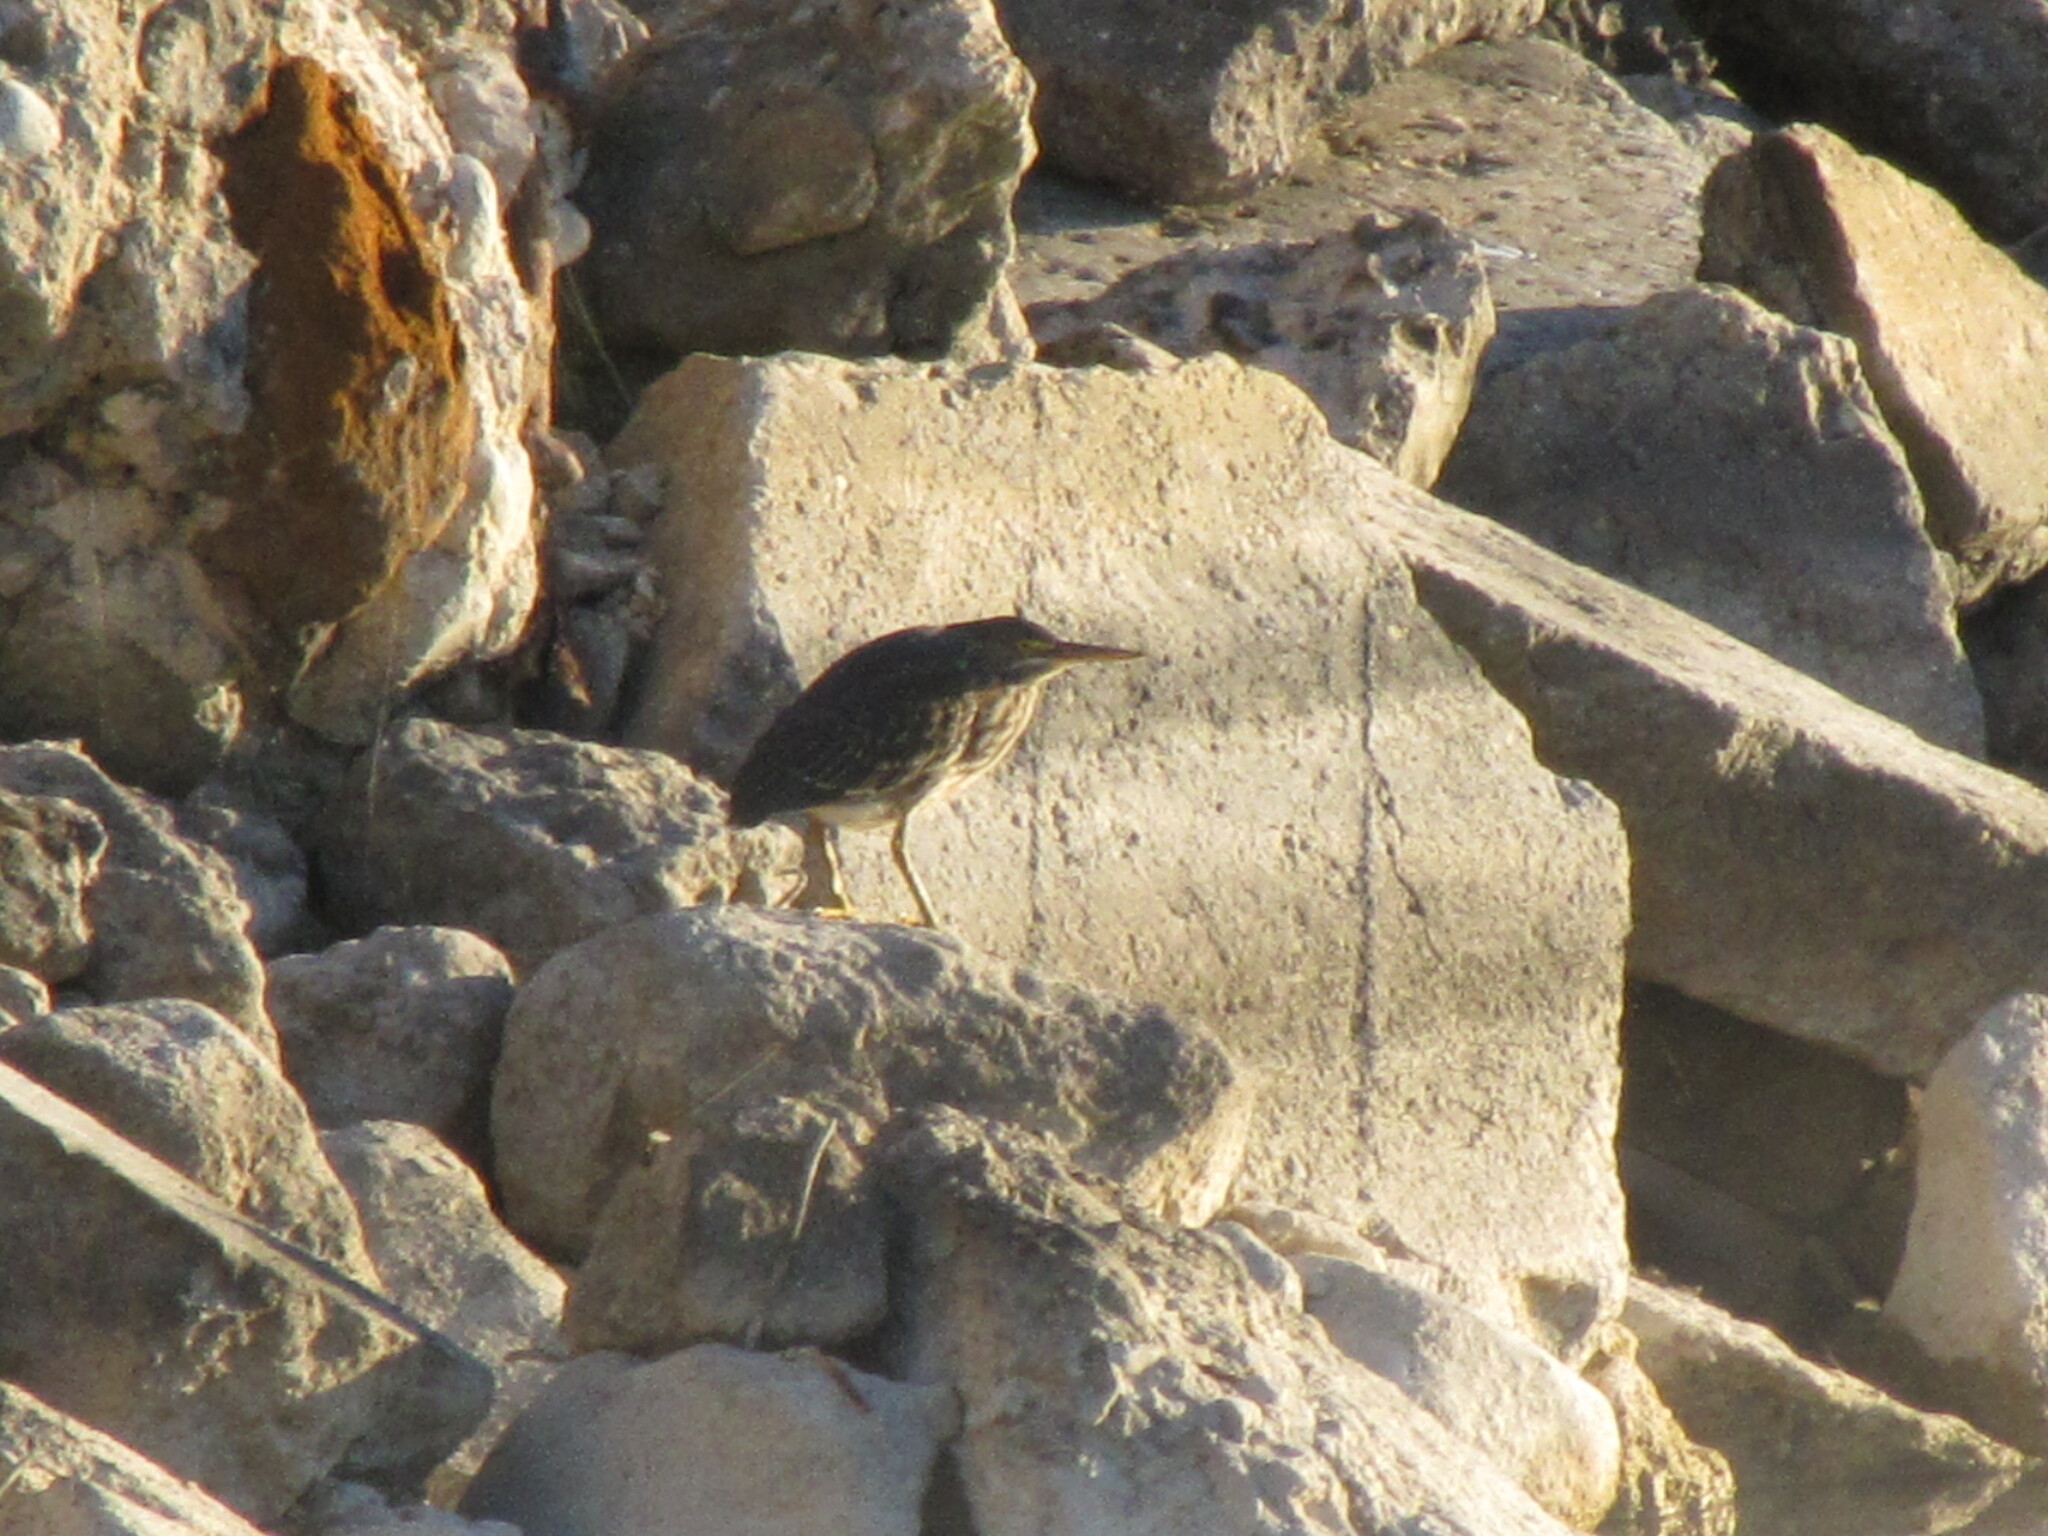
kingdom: Animalia
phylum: Chordata
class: Aves
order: Pelecaniformes
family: Ardeidae
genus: Butorides
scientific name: Butorides virescens
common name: Green heron
